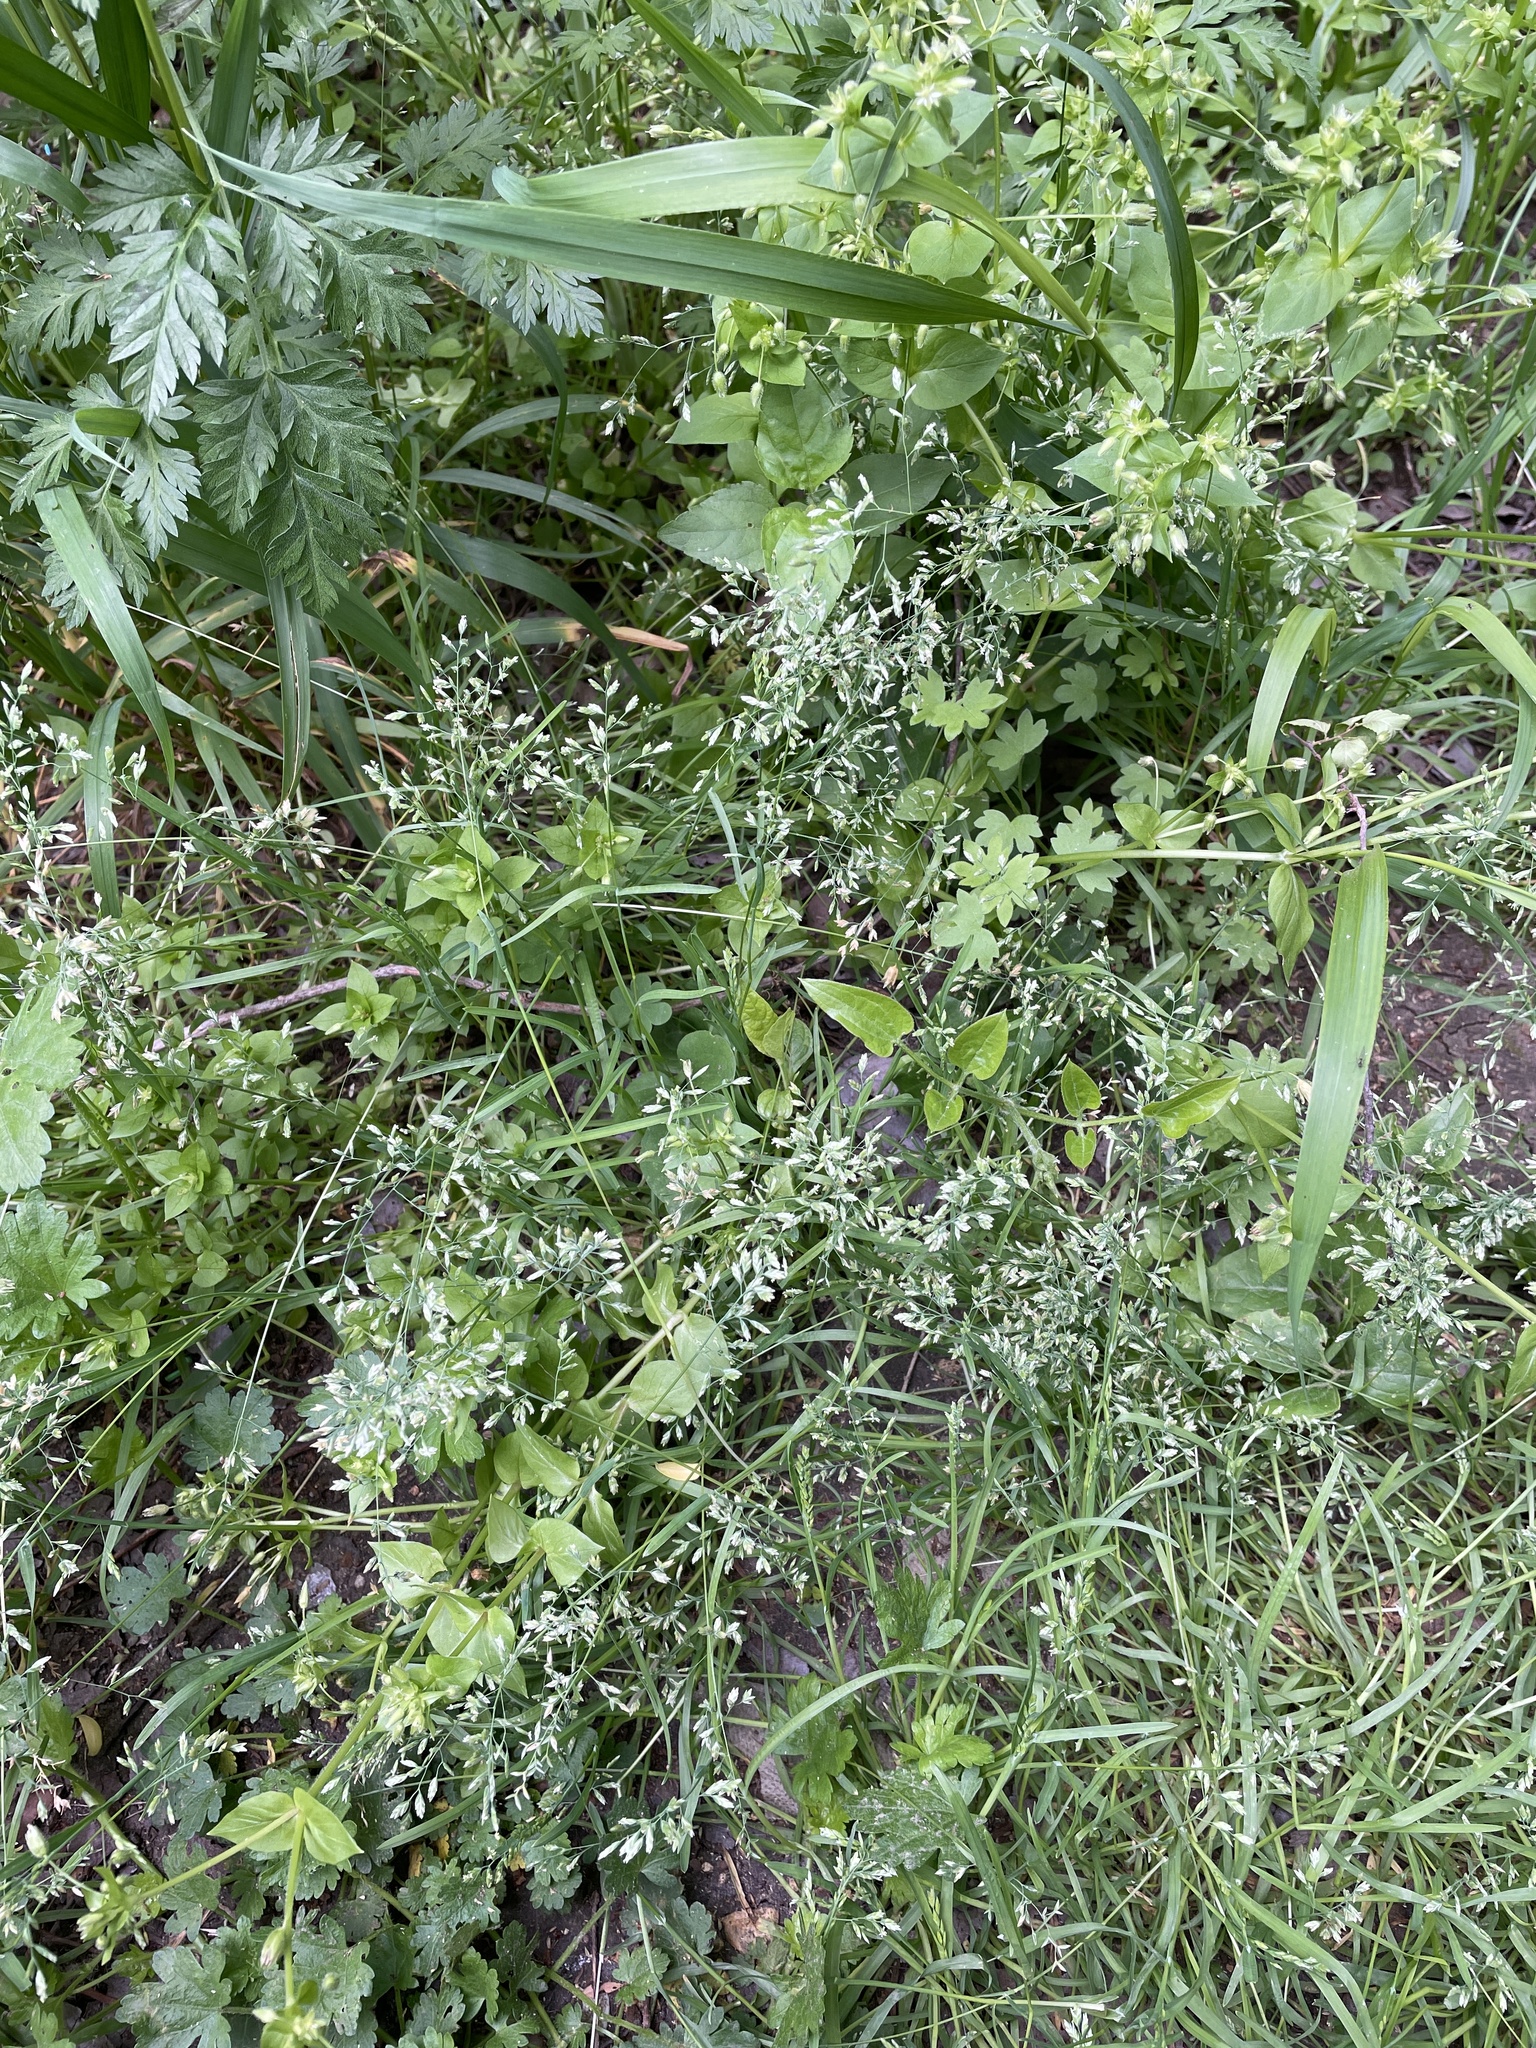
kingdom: Plantae
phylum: Tracheophyta
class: Liliopsida
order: Poales
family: Poaceae
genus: Poa
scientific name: Poa annua
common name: Annual bluegrass
